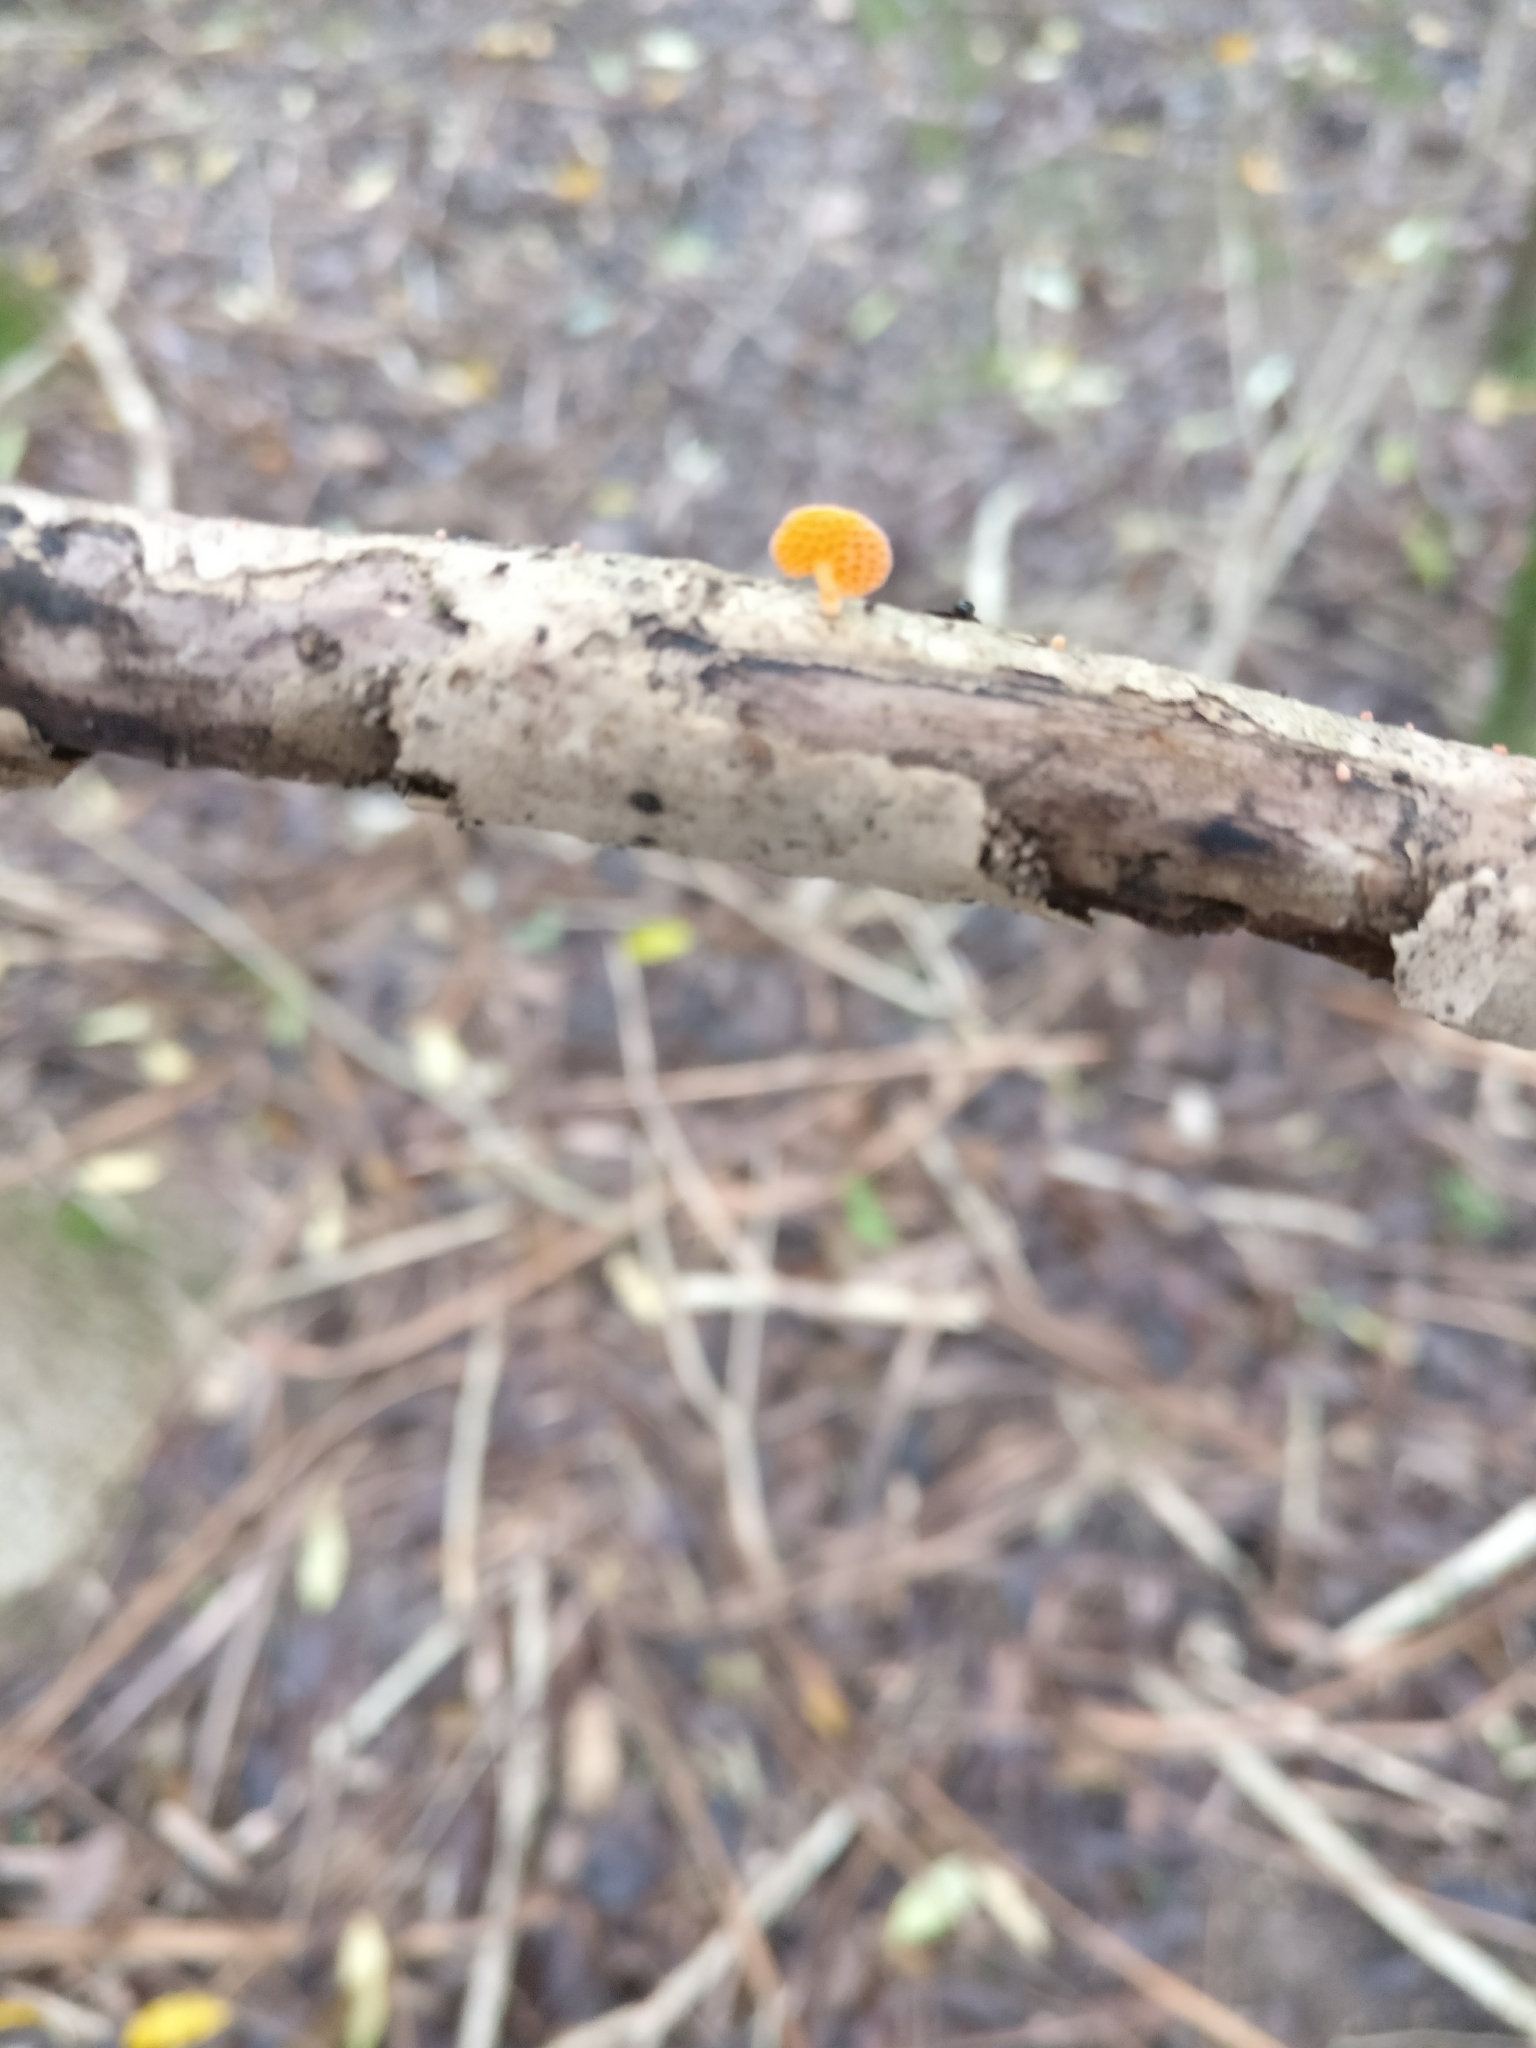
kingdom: Fungi
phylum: Basidiomycota
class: Agaricomycetes
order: Agaricales
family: Mycenaceae
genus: Favolaschia
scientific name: Favolaschia claudopus
